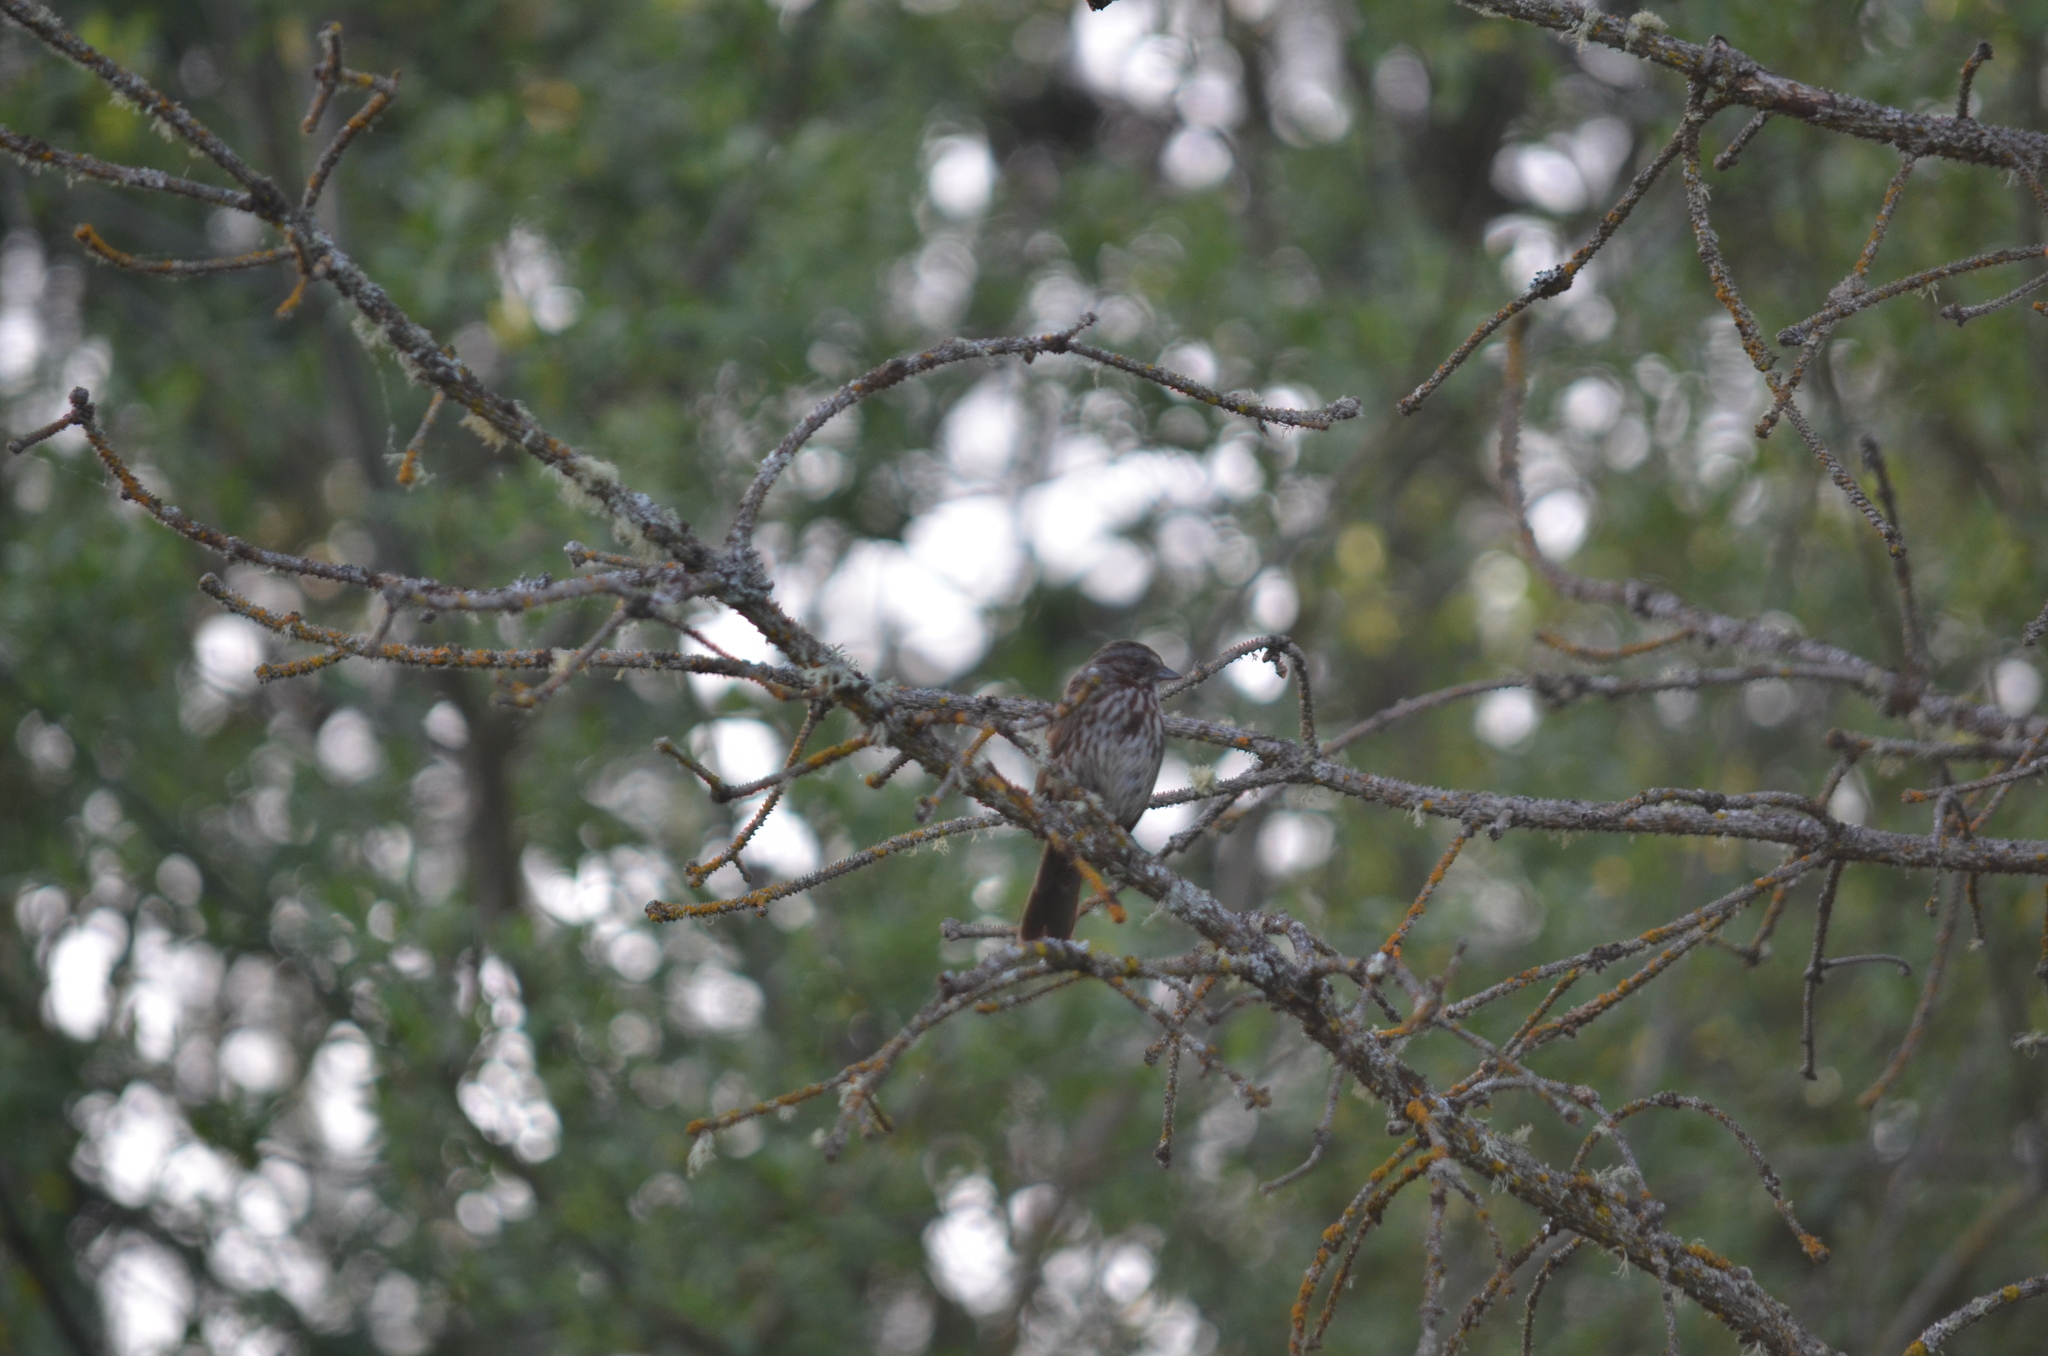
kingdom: Animalia
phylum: Chordata
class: Aves
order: Passeriformes
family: Passerellidae
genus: Melospiza
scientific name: Melospiza melodia
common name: Song sparrow
